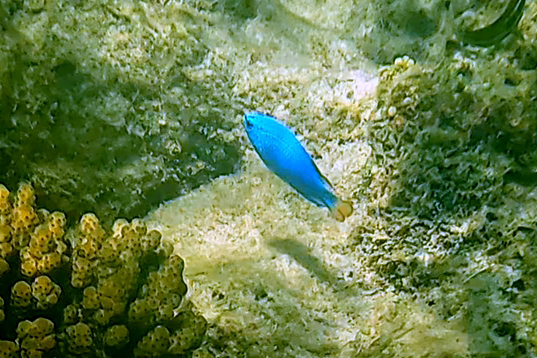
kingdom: Animalia
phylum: Chordata
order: Perciformes
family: Pomacentridae
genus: Chrysiptera
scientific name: Chrysiptera cyanea
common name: Blue devil
